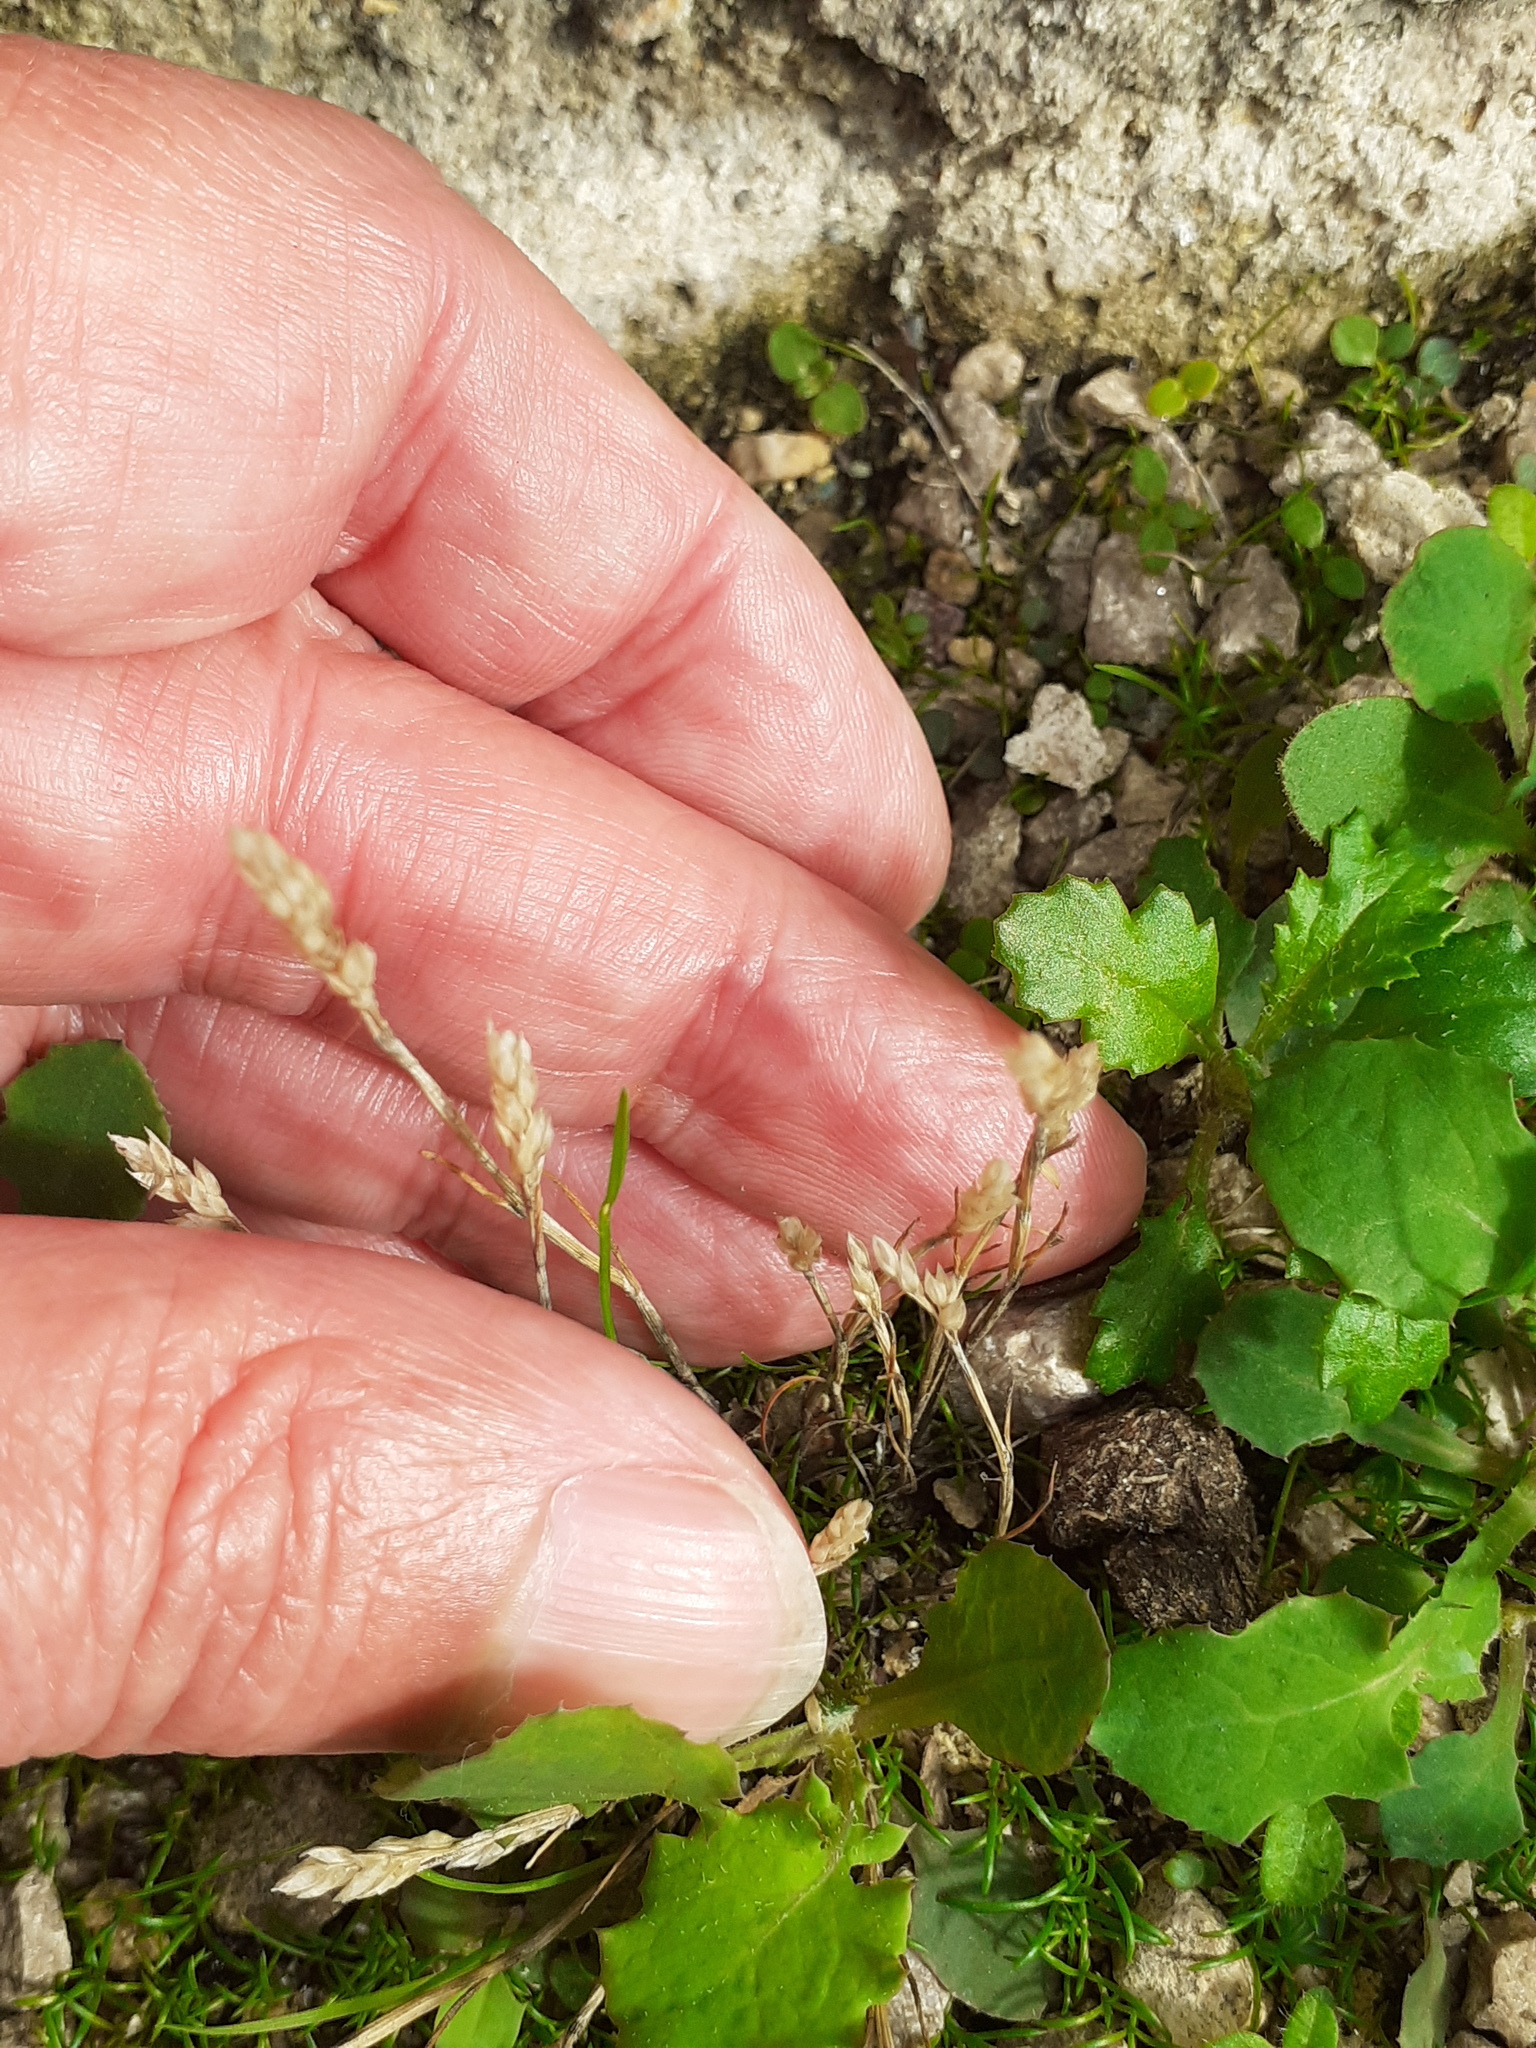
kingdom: Plantae
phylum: Tracheophyta
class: Liliopsida
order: Poales
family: Poaceae
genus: Aira
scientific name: Aira praecox
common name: Early hair-grass
